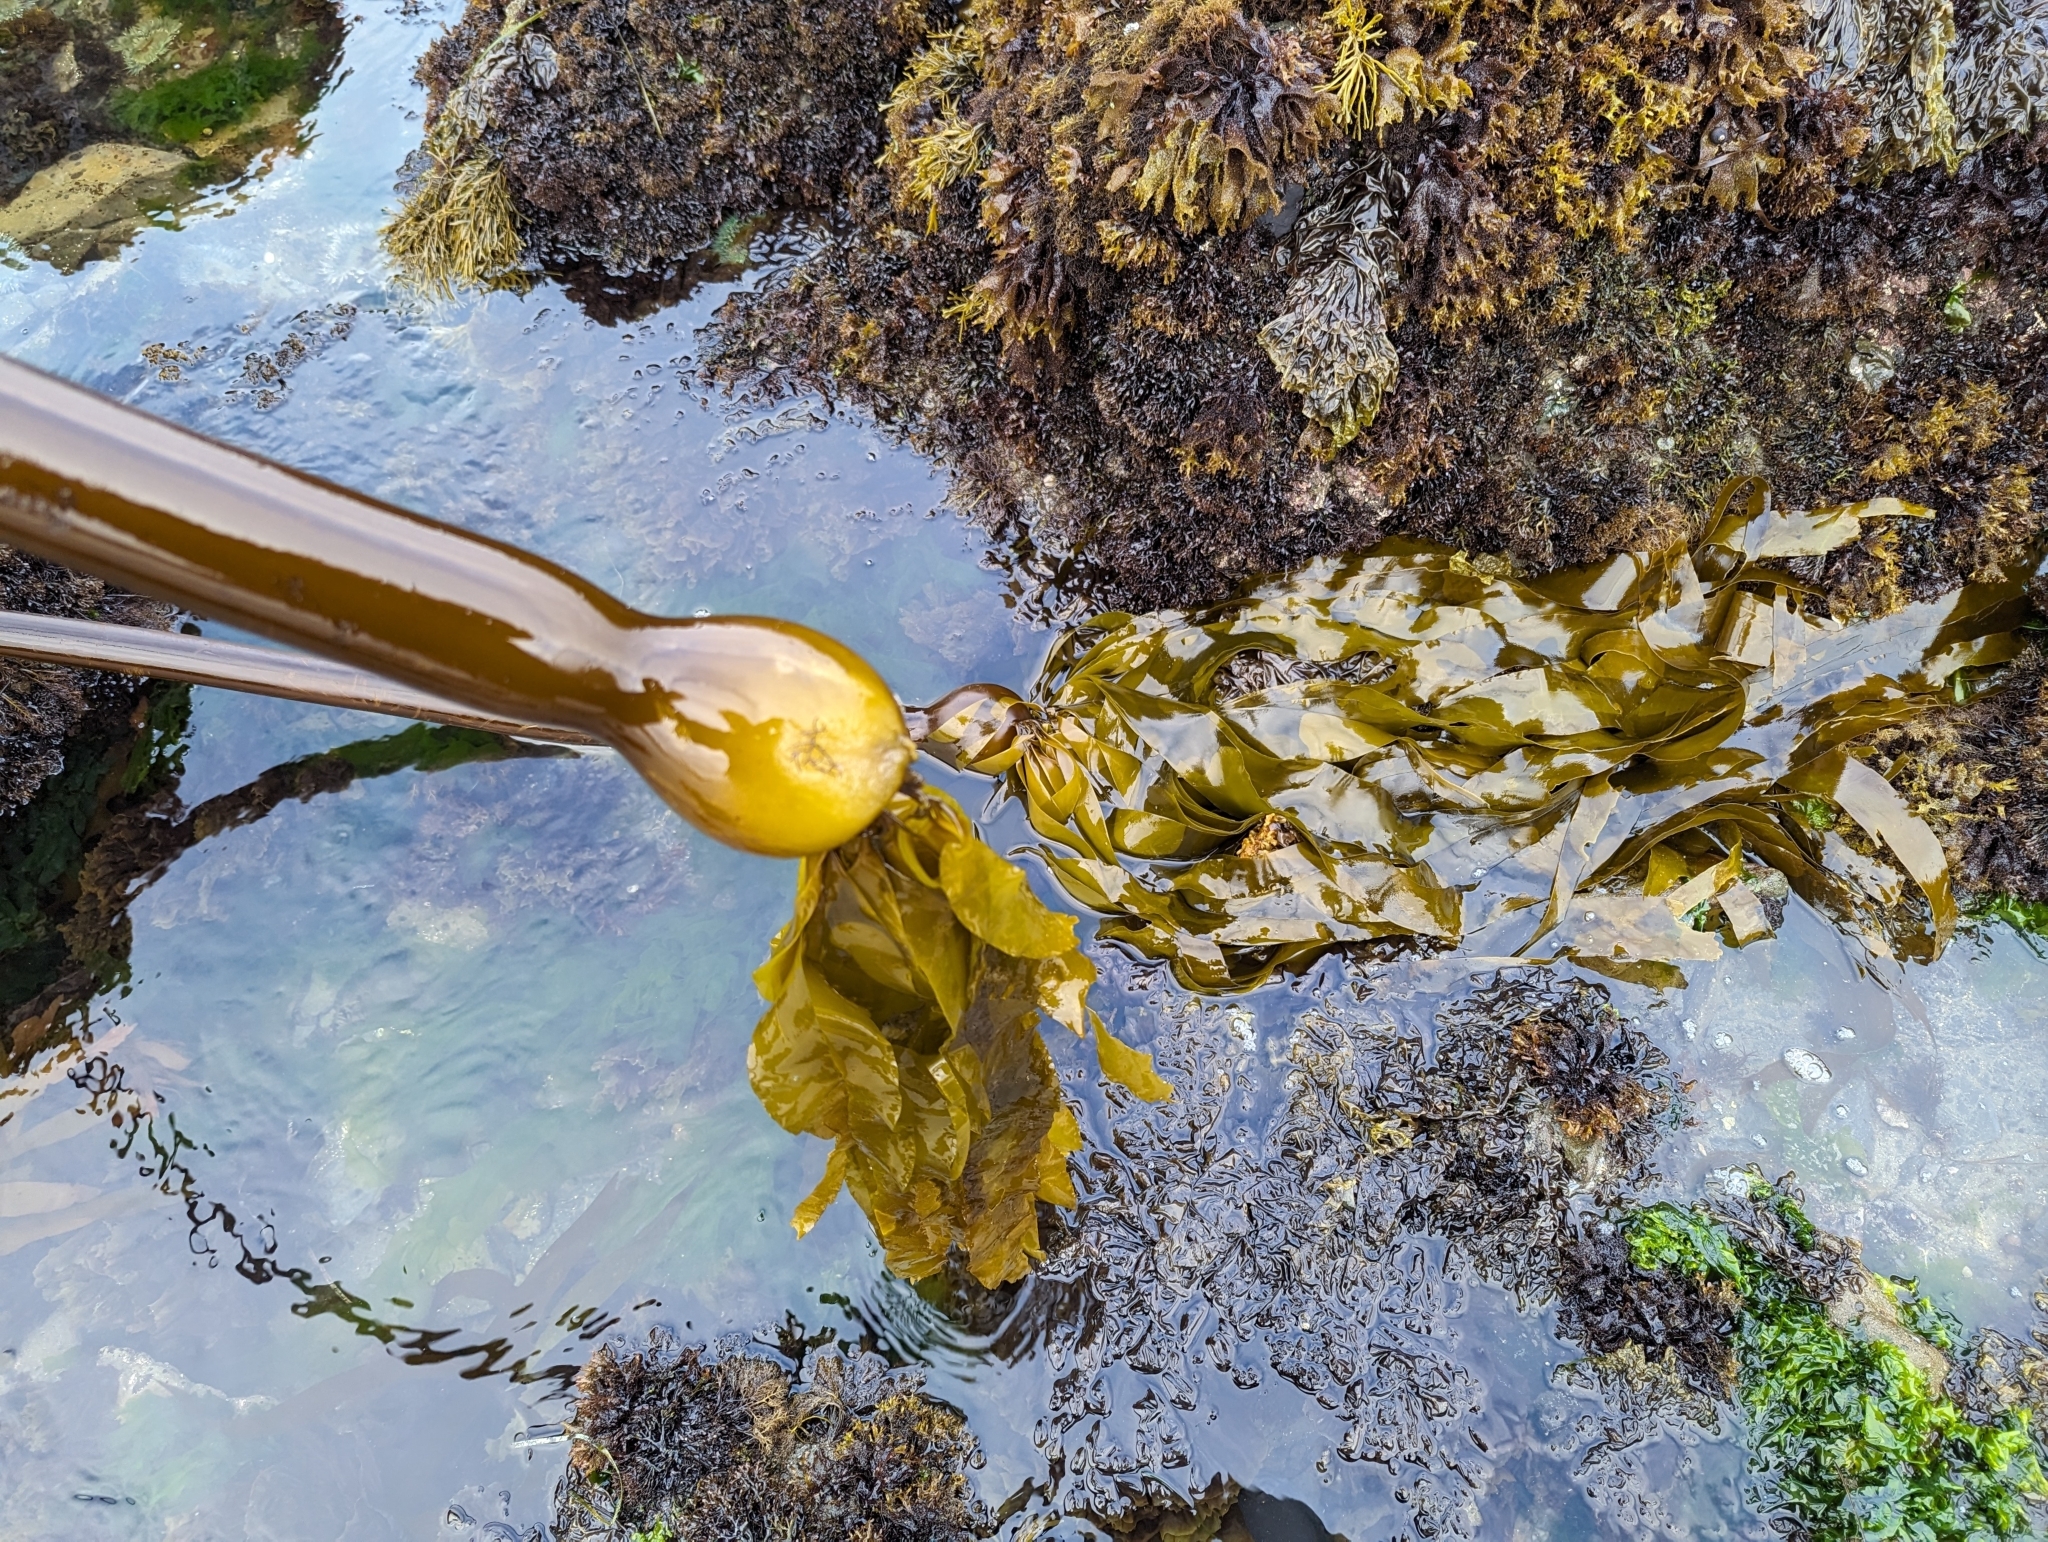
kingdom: Chromista
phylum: Ochrophyta
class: Phaeophyceae
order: Laminariales
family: Laminariaceae
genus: Nereocystis
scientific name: Nereocystis luetkeana
